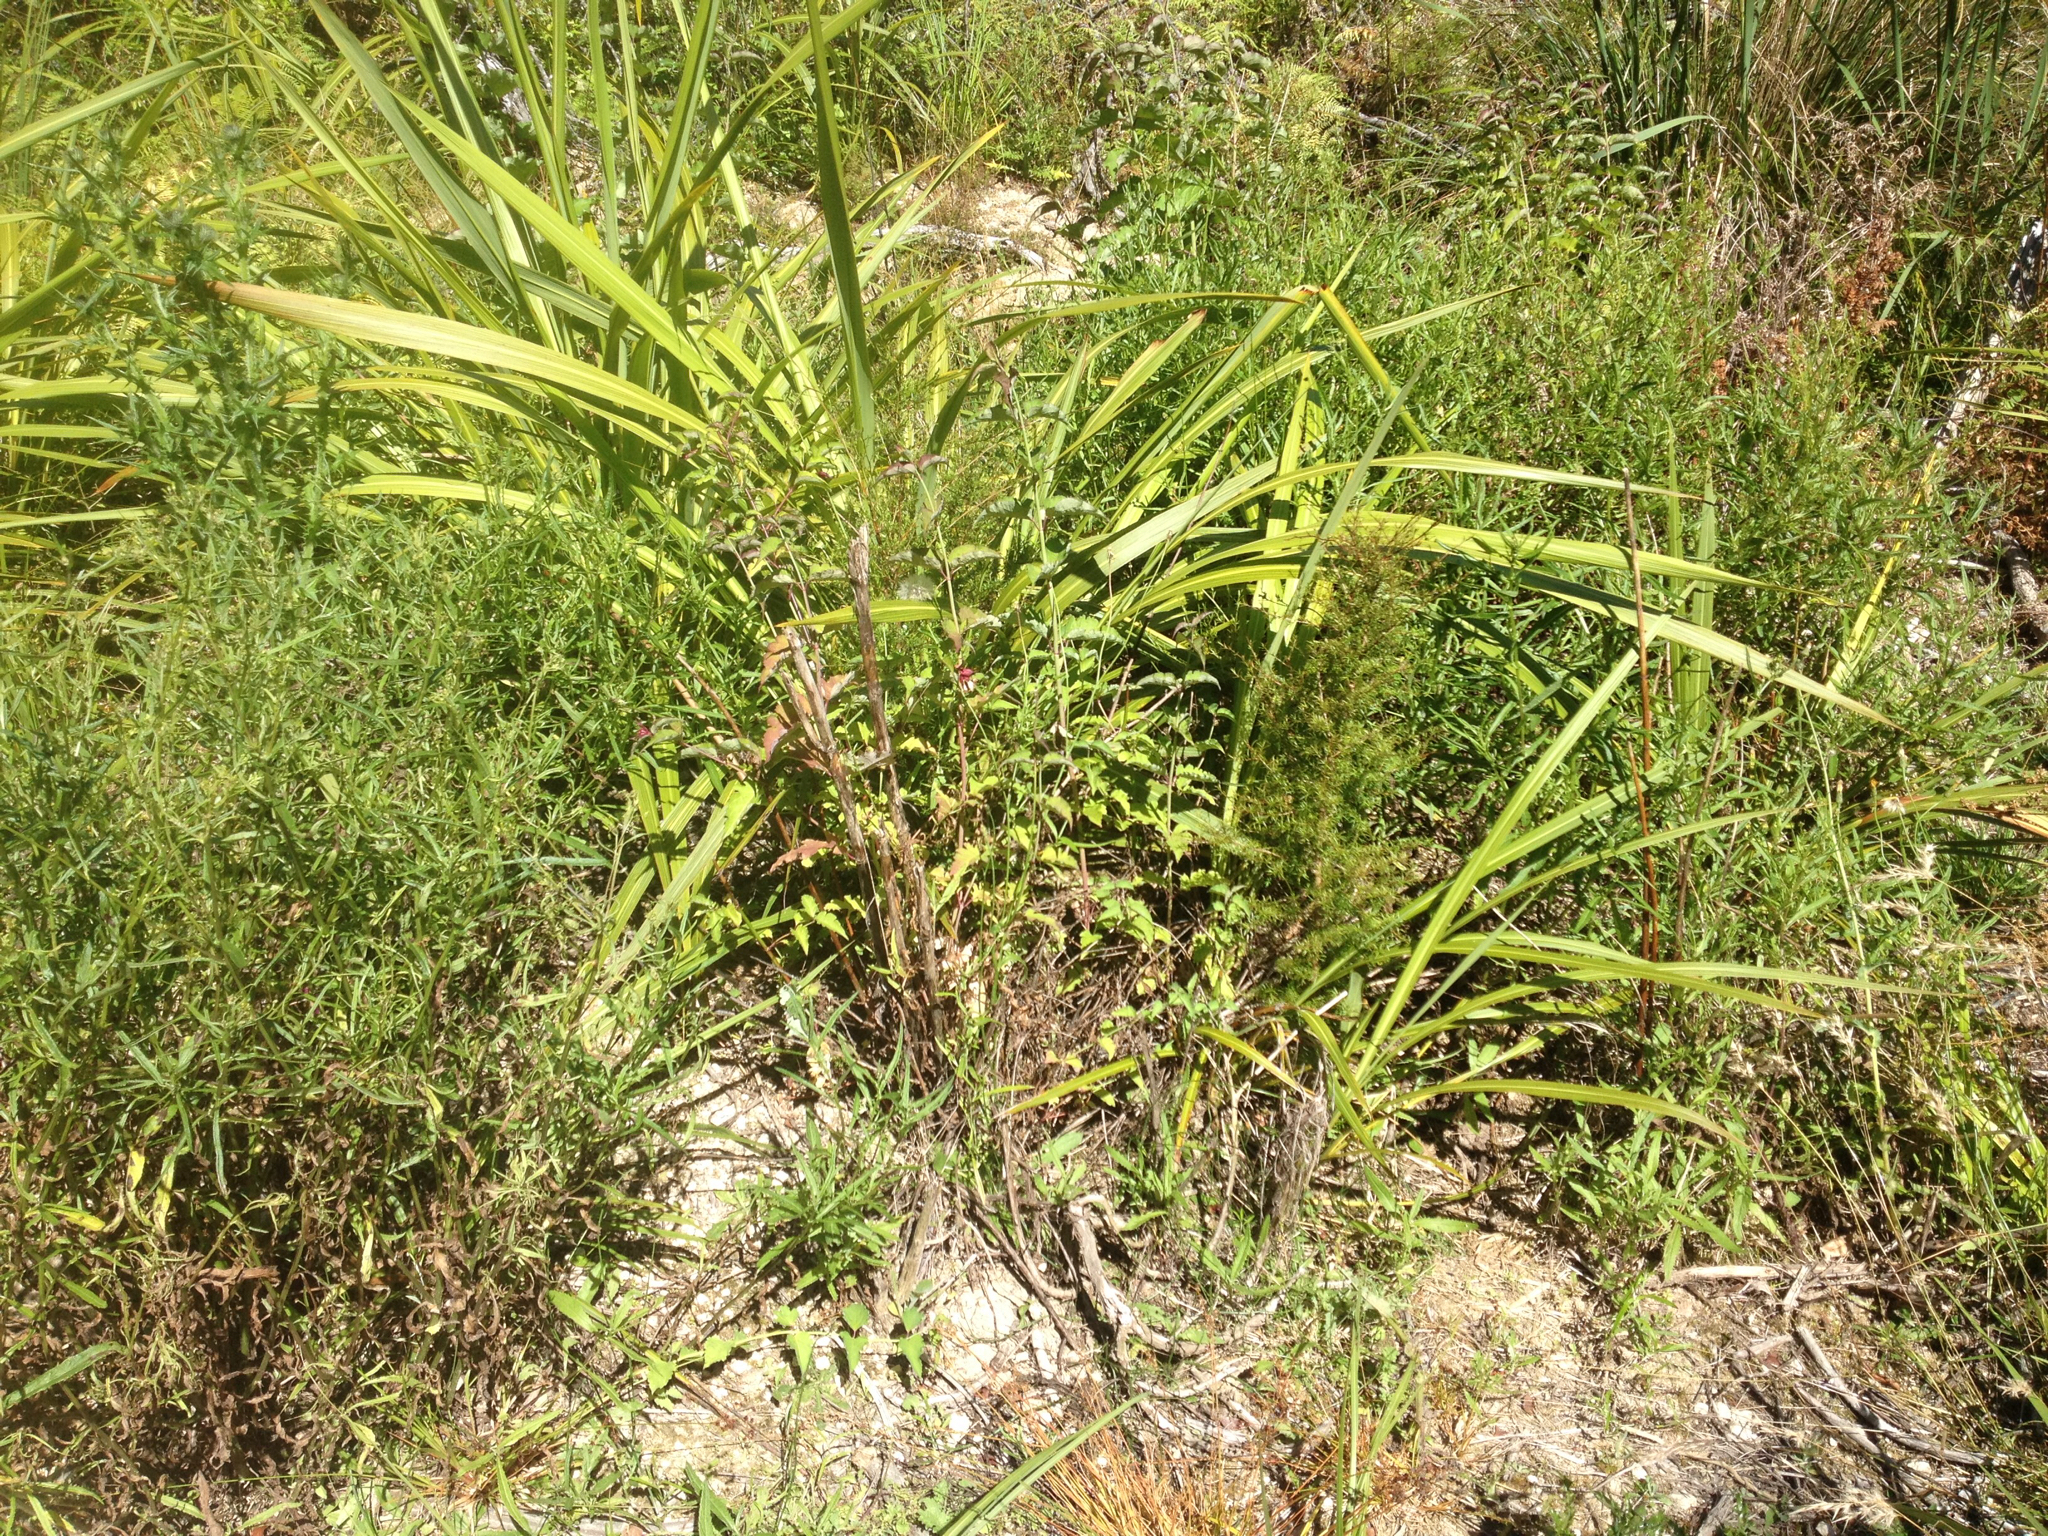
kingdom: Plantae
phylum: Tracheophyta
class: Magnoliopsida
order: Dipsacales
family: Caprifoliaceae
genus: Leycesteria
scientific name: Leycesteria formosa
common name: Himalayan honeysuckle
